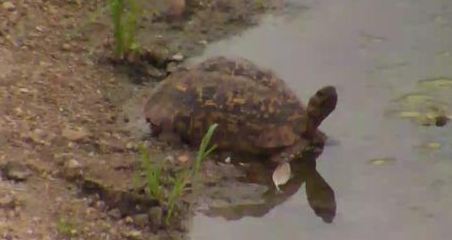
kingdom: Animalia
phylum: Chordata
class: Testudines
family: Testudinidae
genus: Stigmochelys
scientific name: Stigmochelys pardalis
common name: Leopard tortoise
